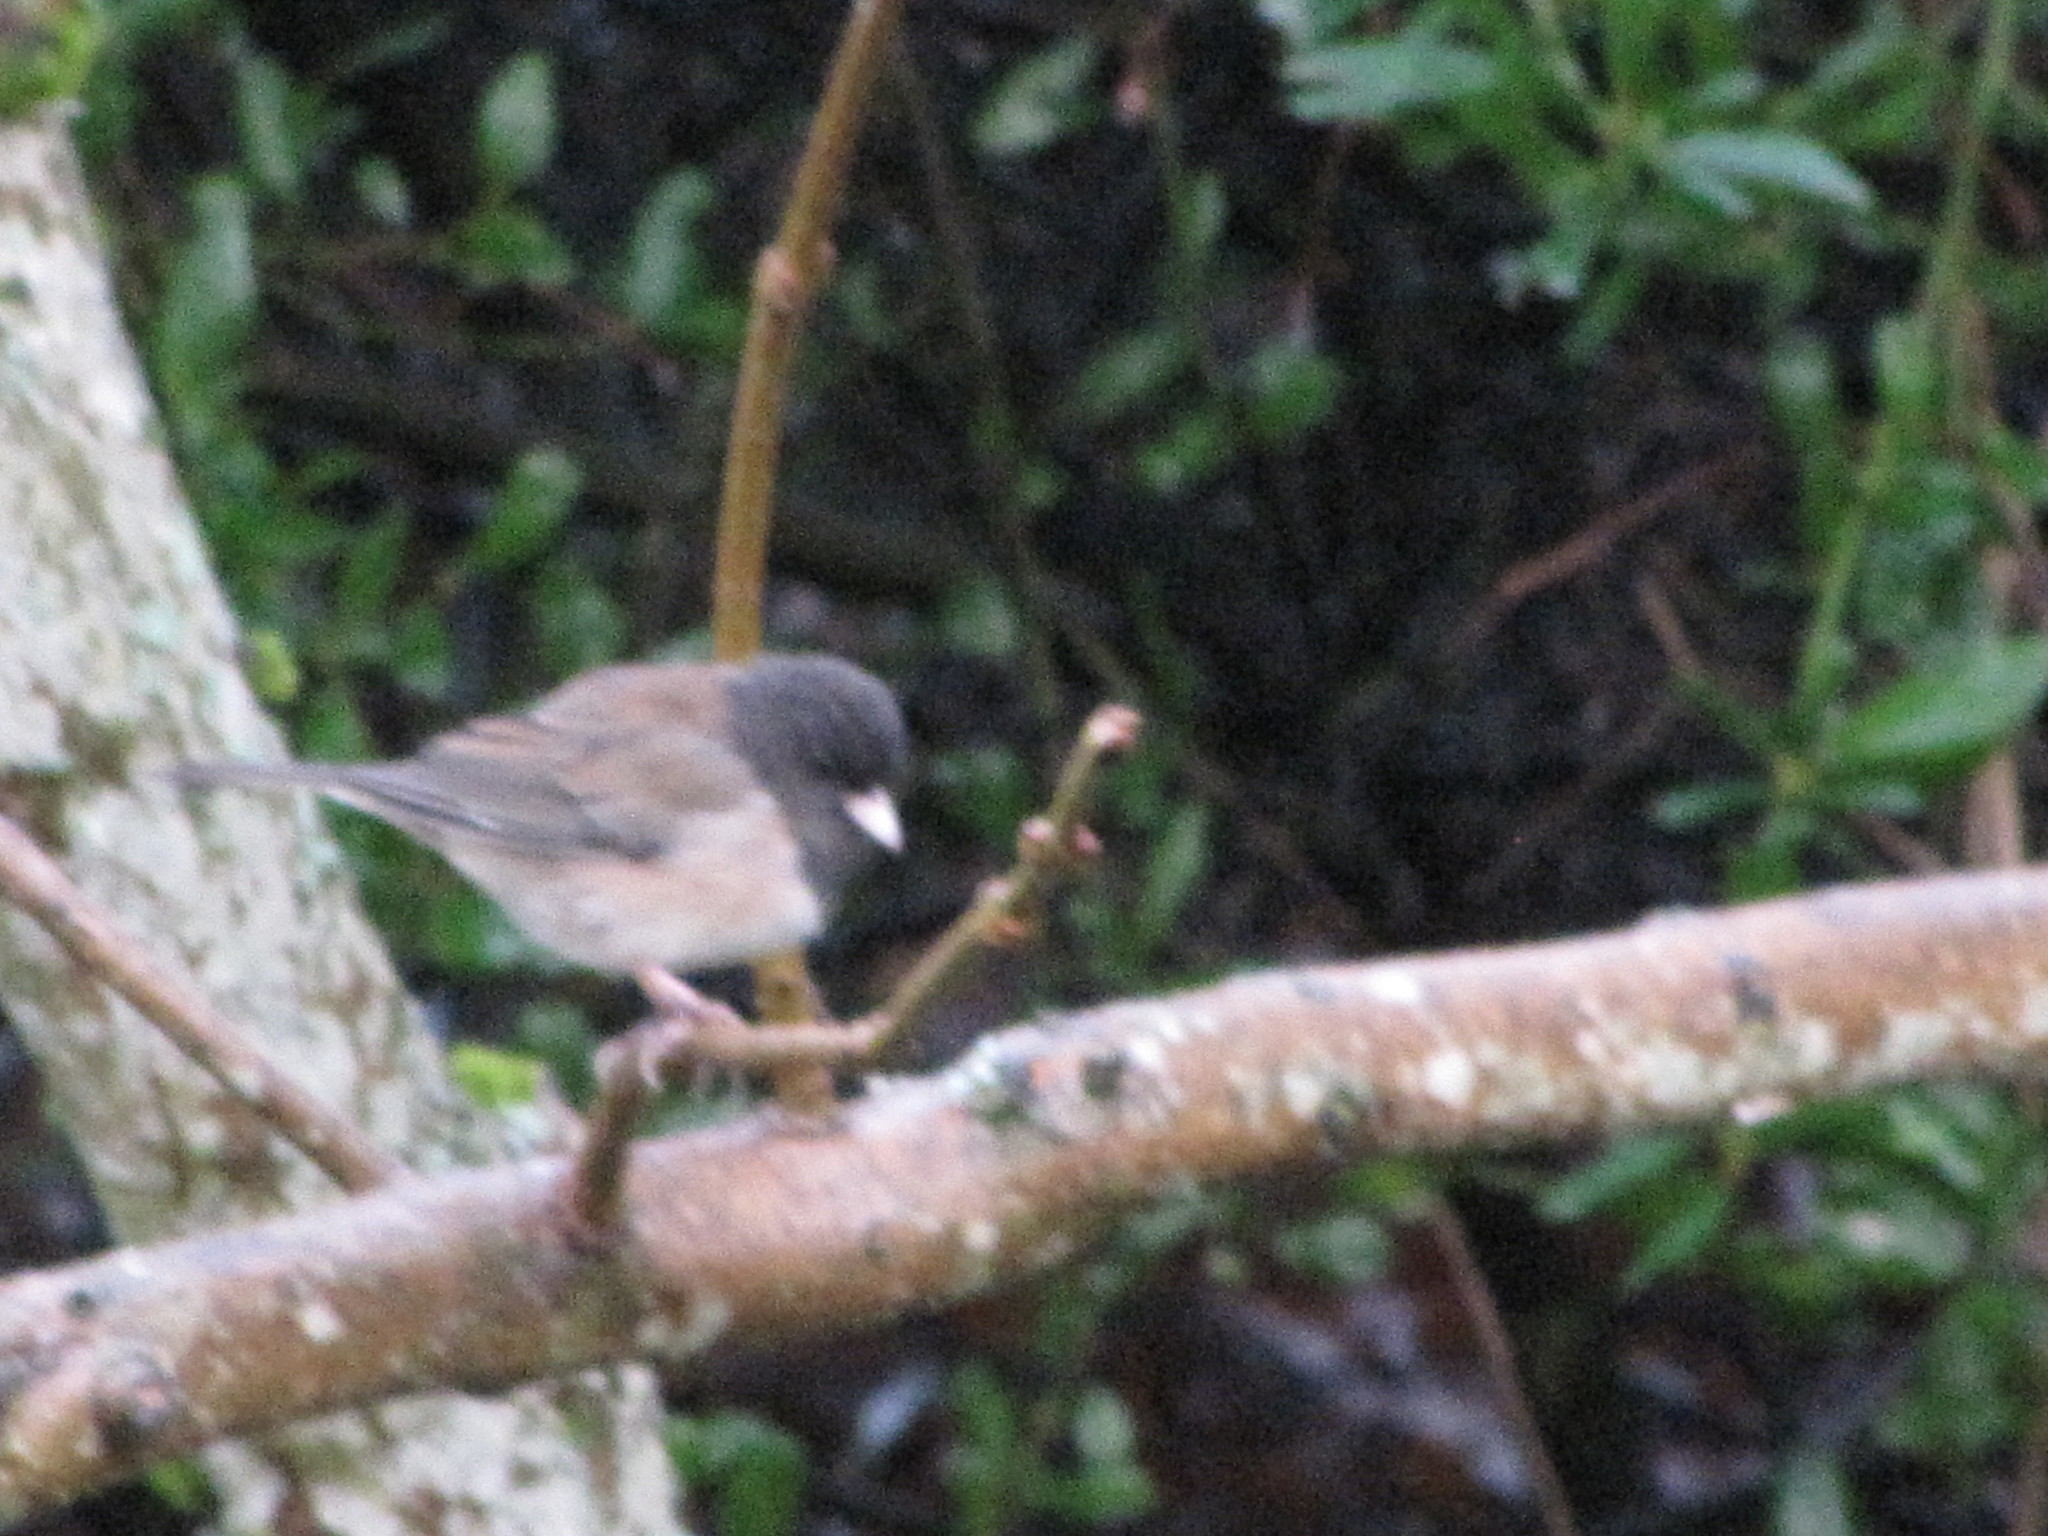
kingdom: Animalia
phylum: Chordata
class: Aves
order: Passeriformes
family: Passerellidae
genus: Junco
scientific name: Junco hyemalis
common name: Dark-eyed junco
